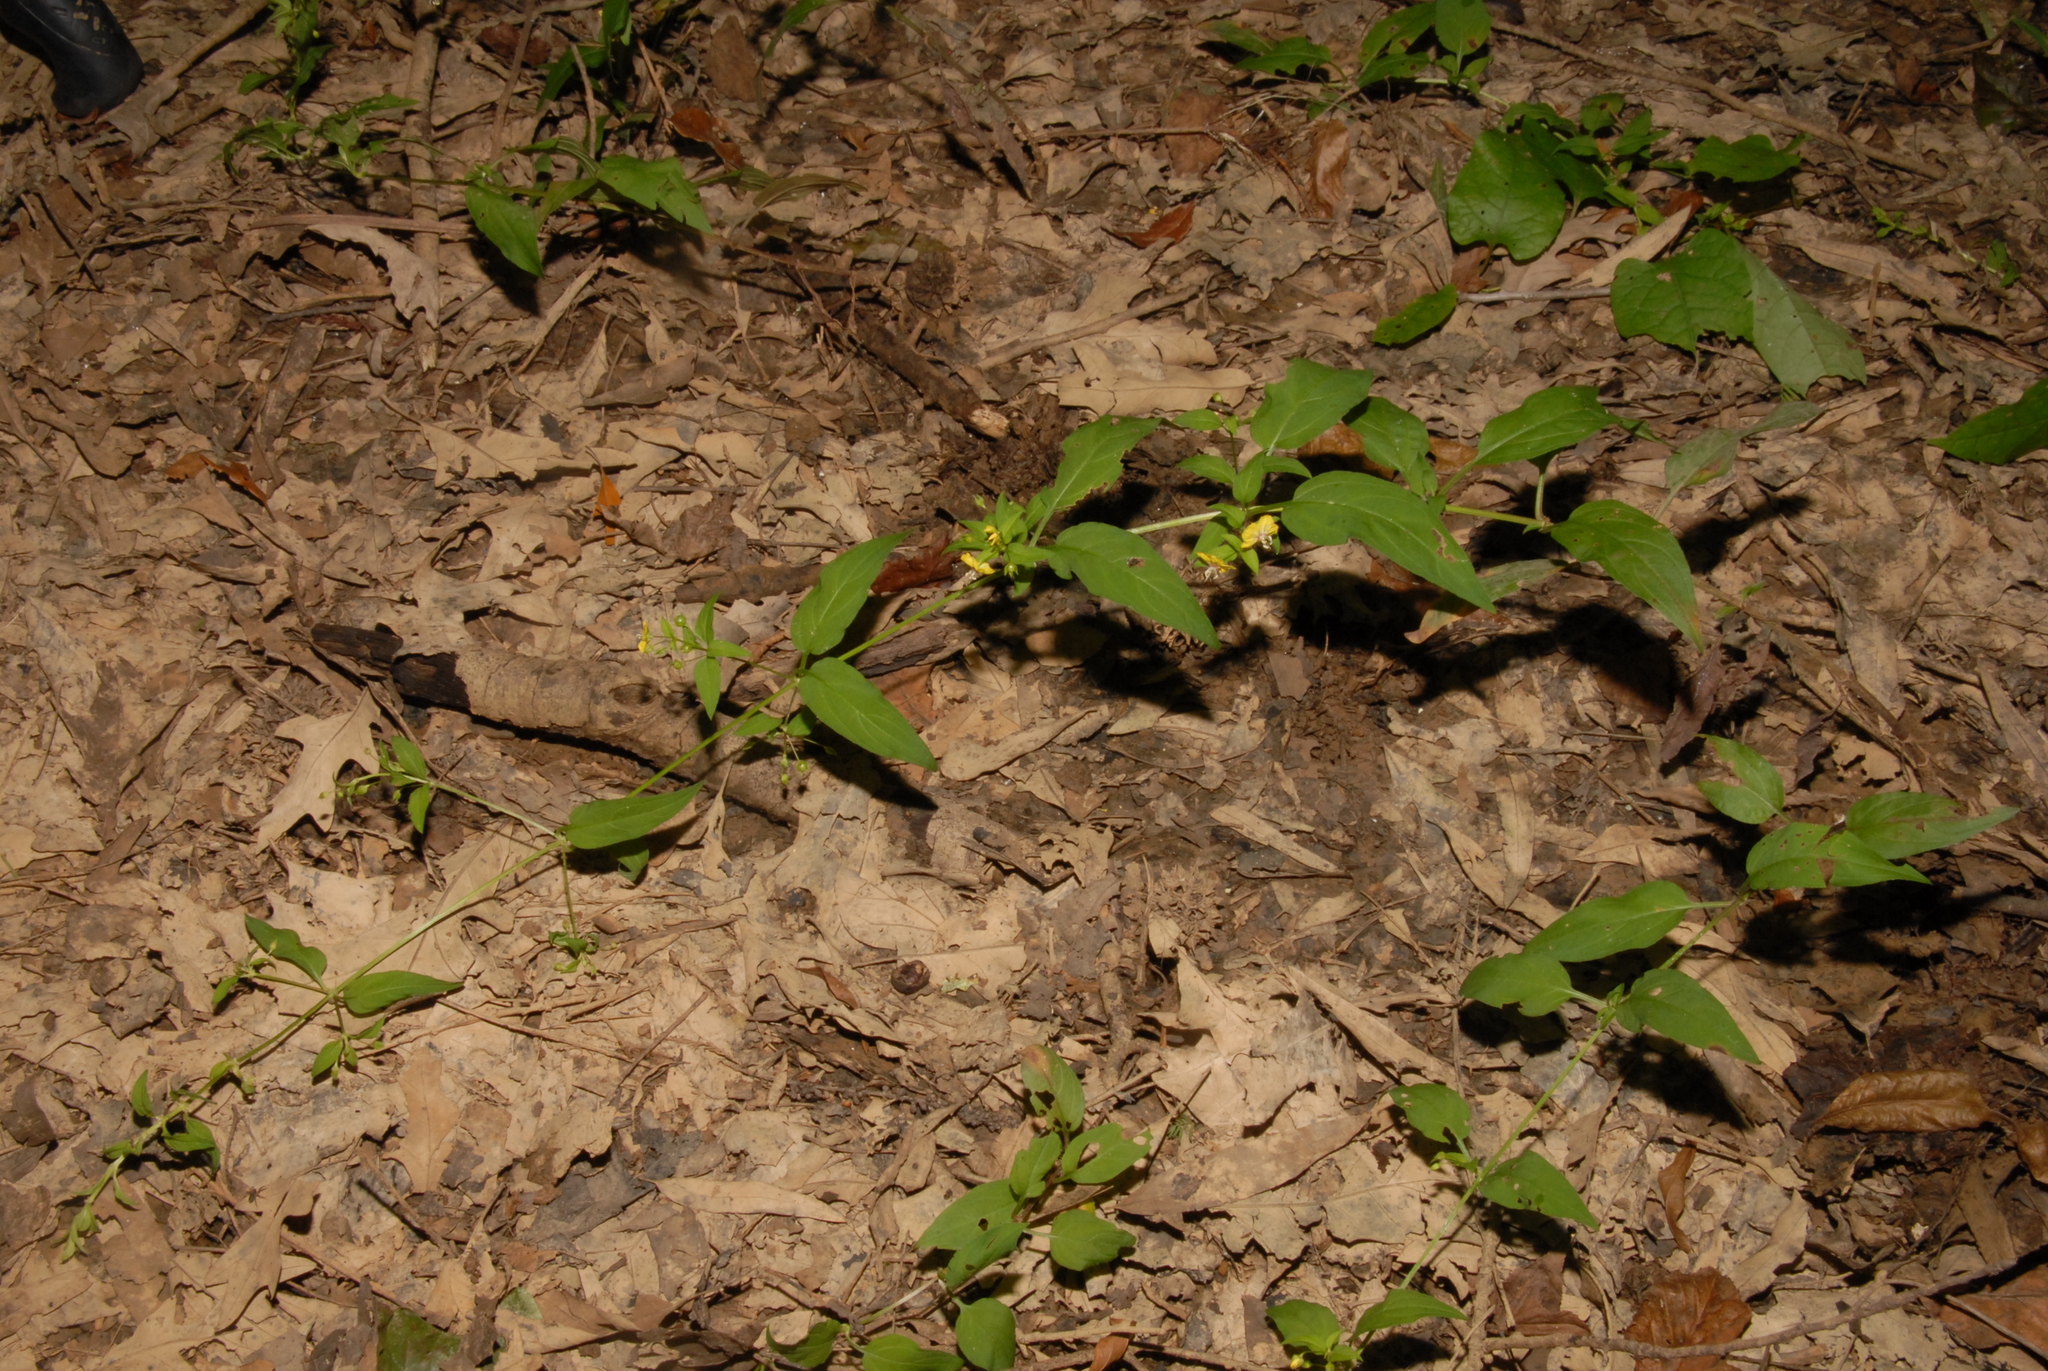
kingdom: Plantae
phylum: Tracheophyta
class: Magnoliopsida
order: Ericales
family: Primulaceae
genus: Lysimachia
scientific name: Lysimachia radicans
